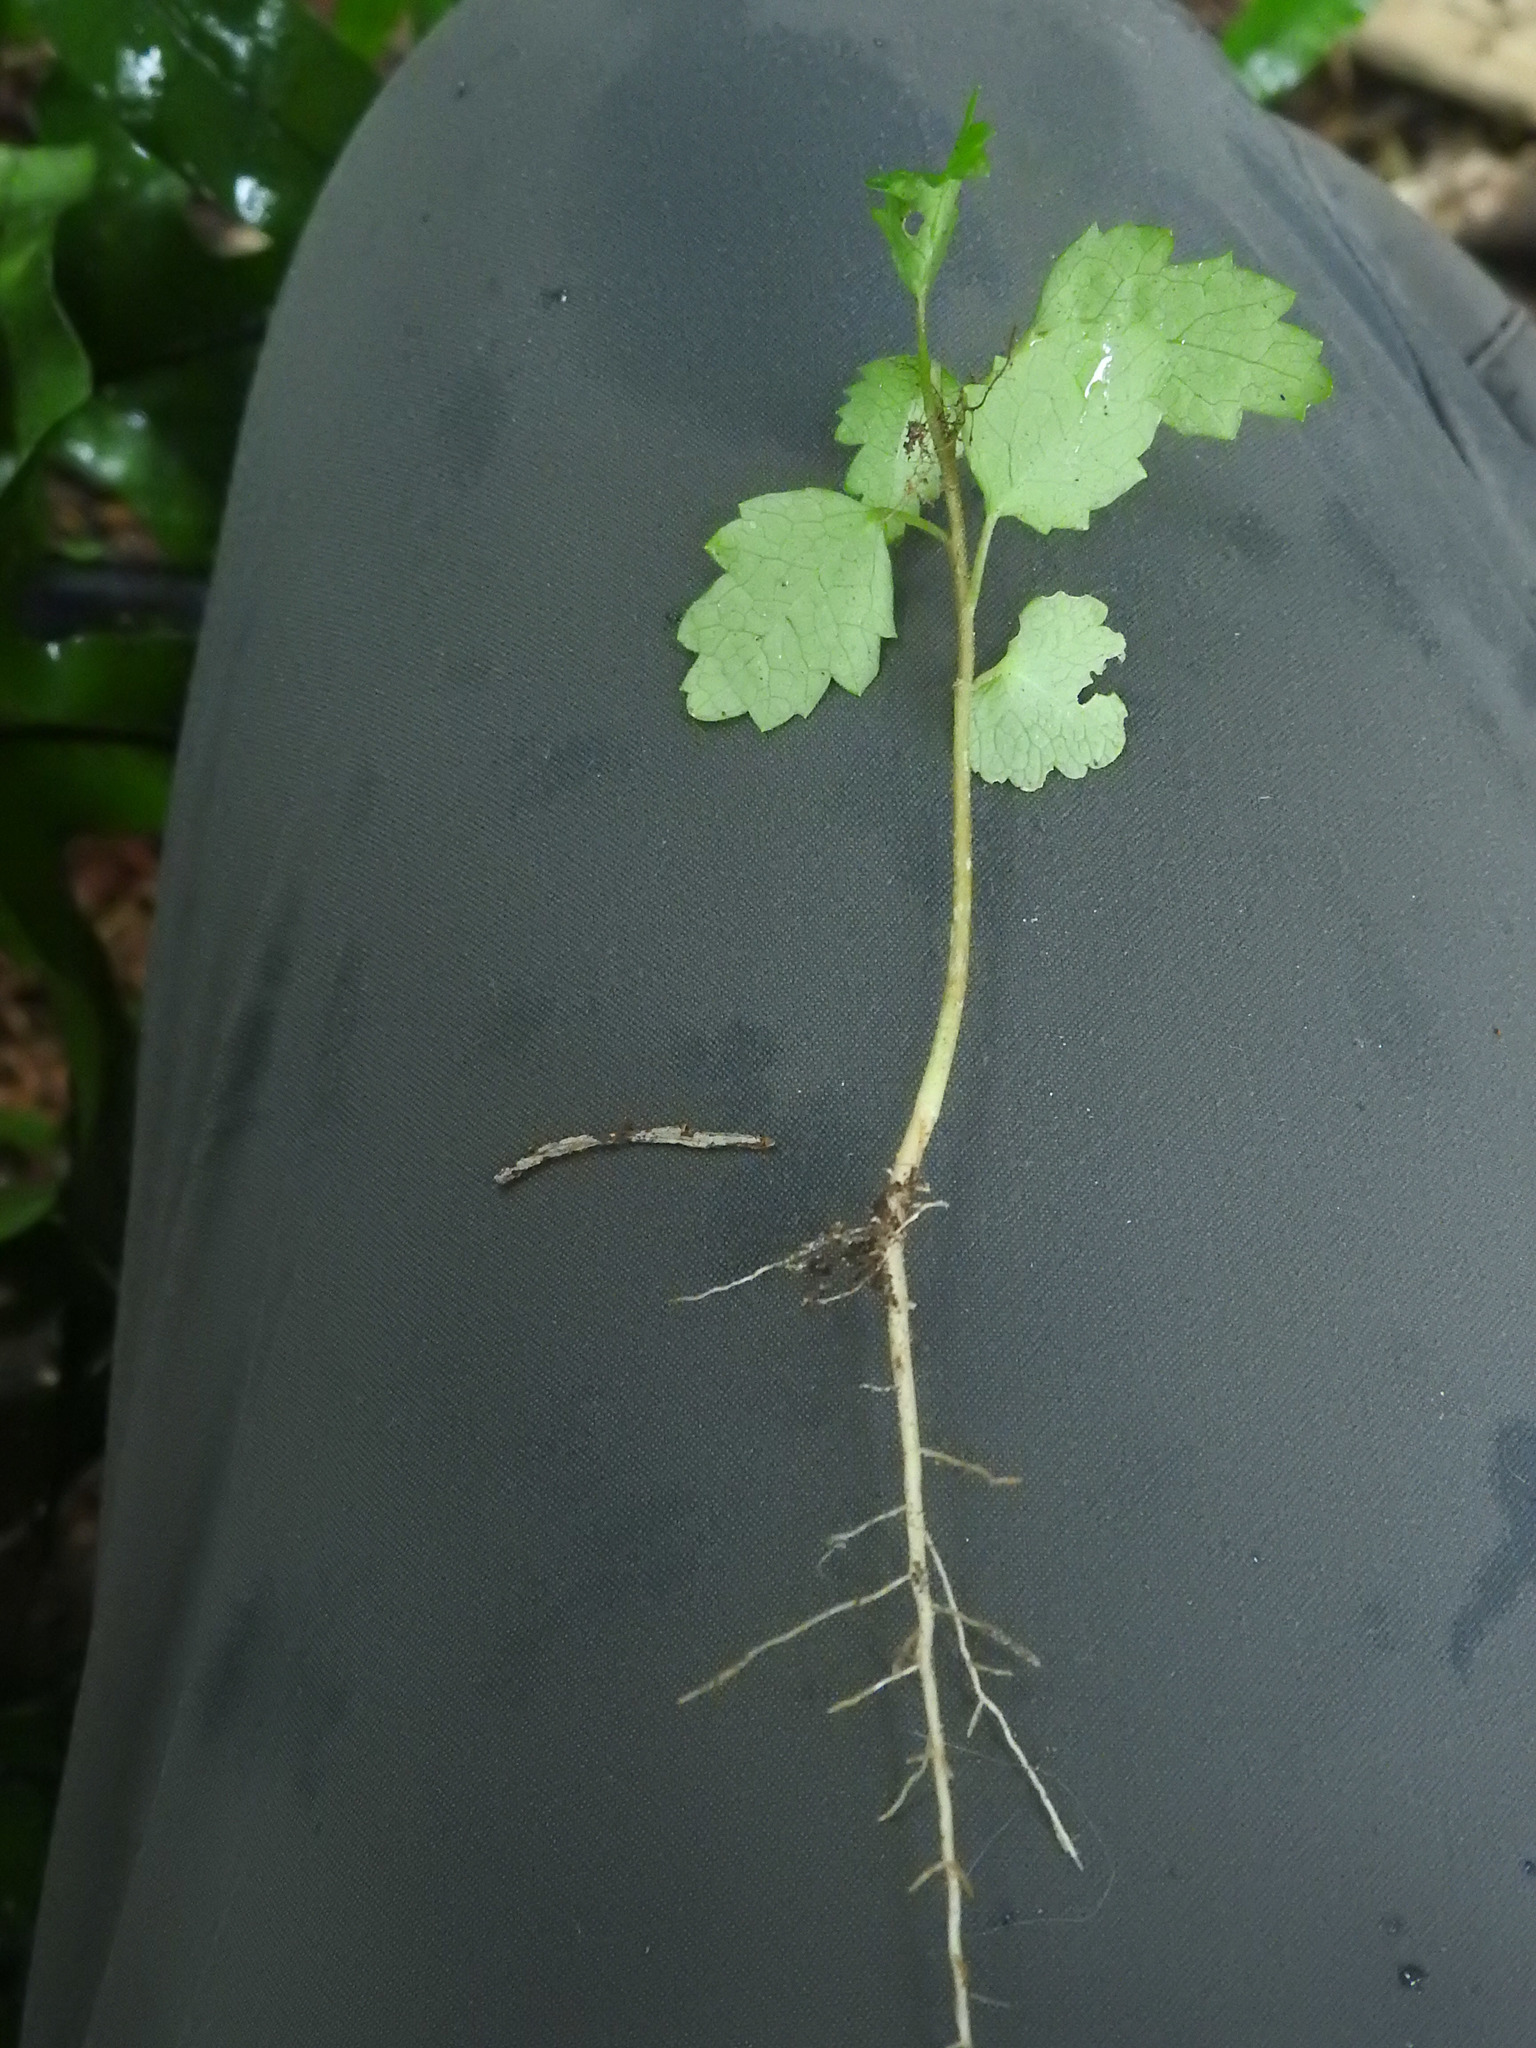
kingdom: Plantae
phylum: Tracheophyta
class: Magnoliopsida
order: Malvales
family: Malvaceae
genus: Hoheria
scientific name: Hoheria sexstylosa
